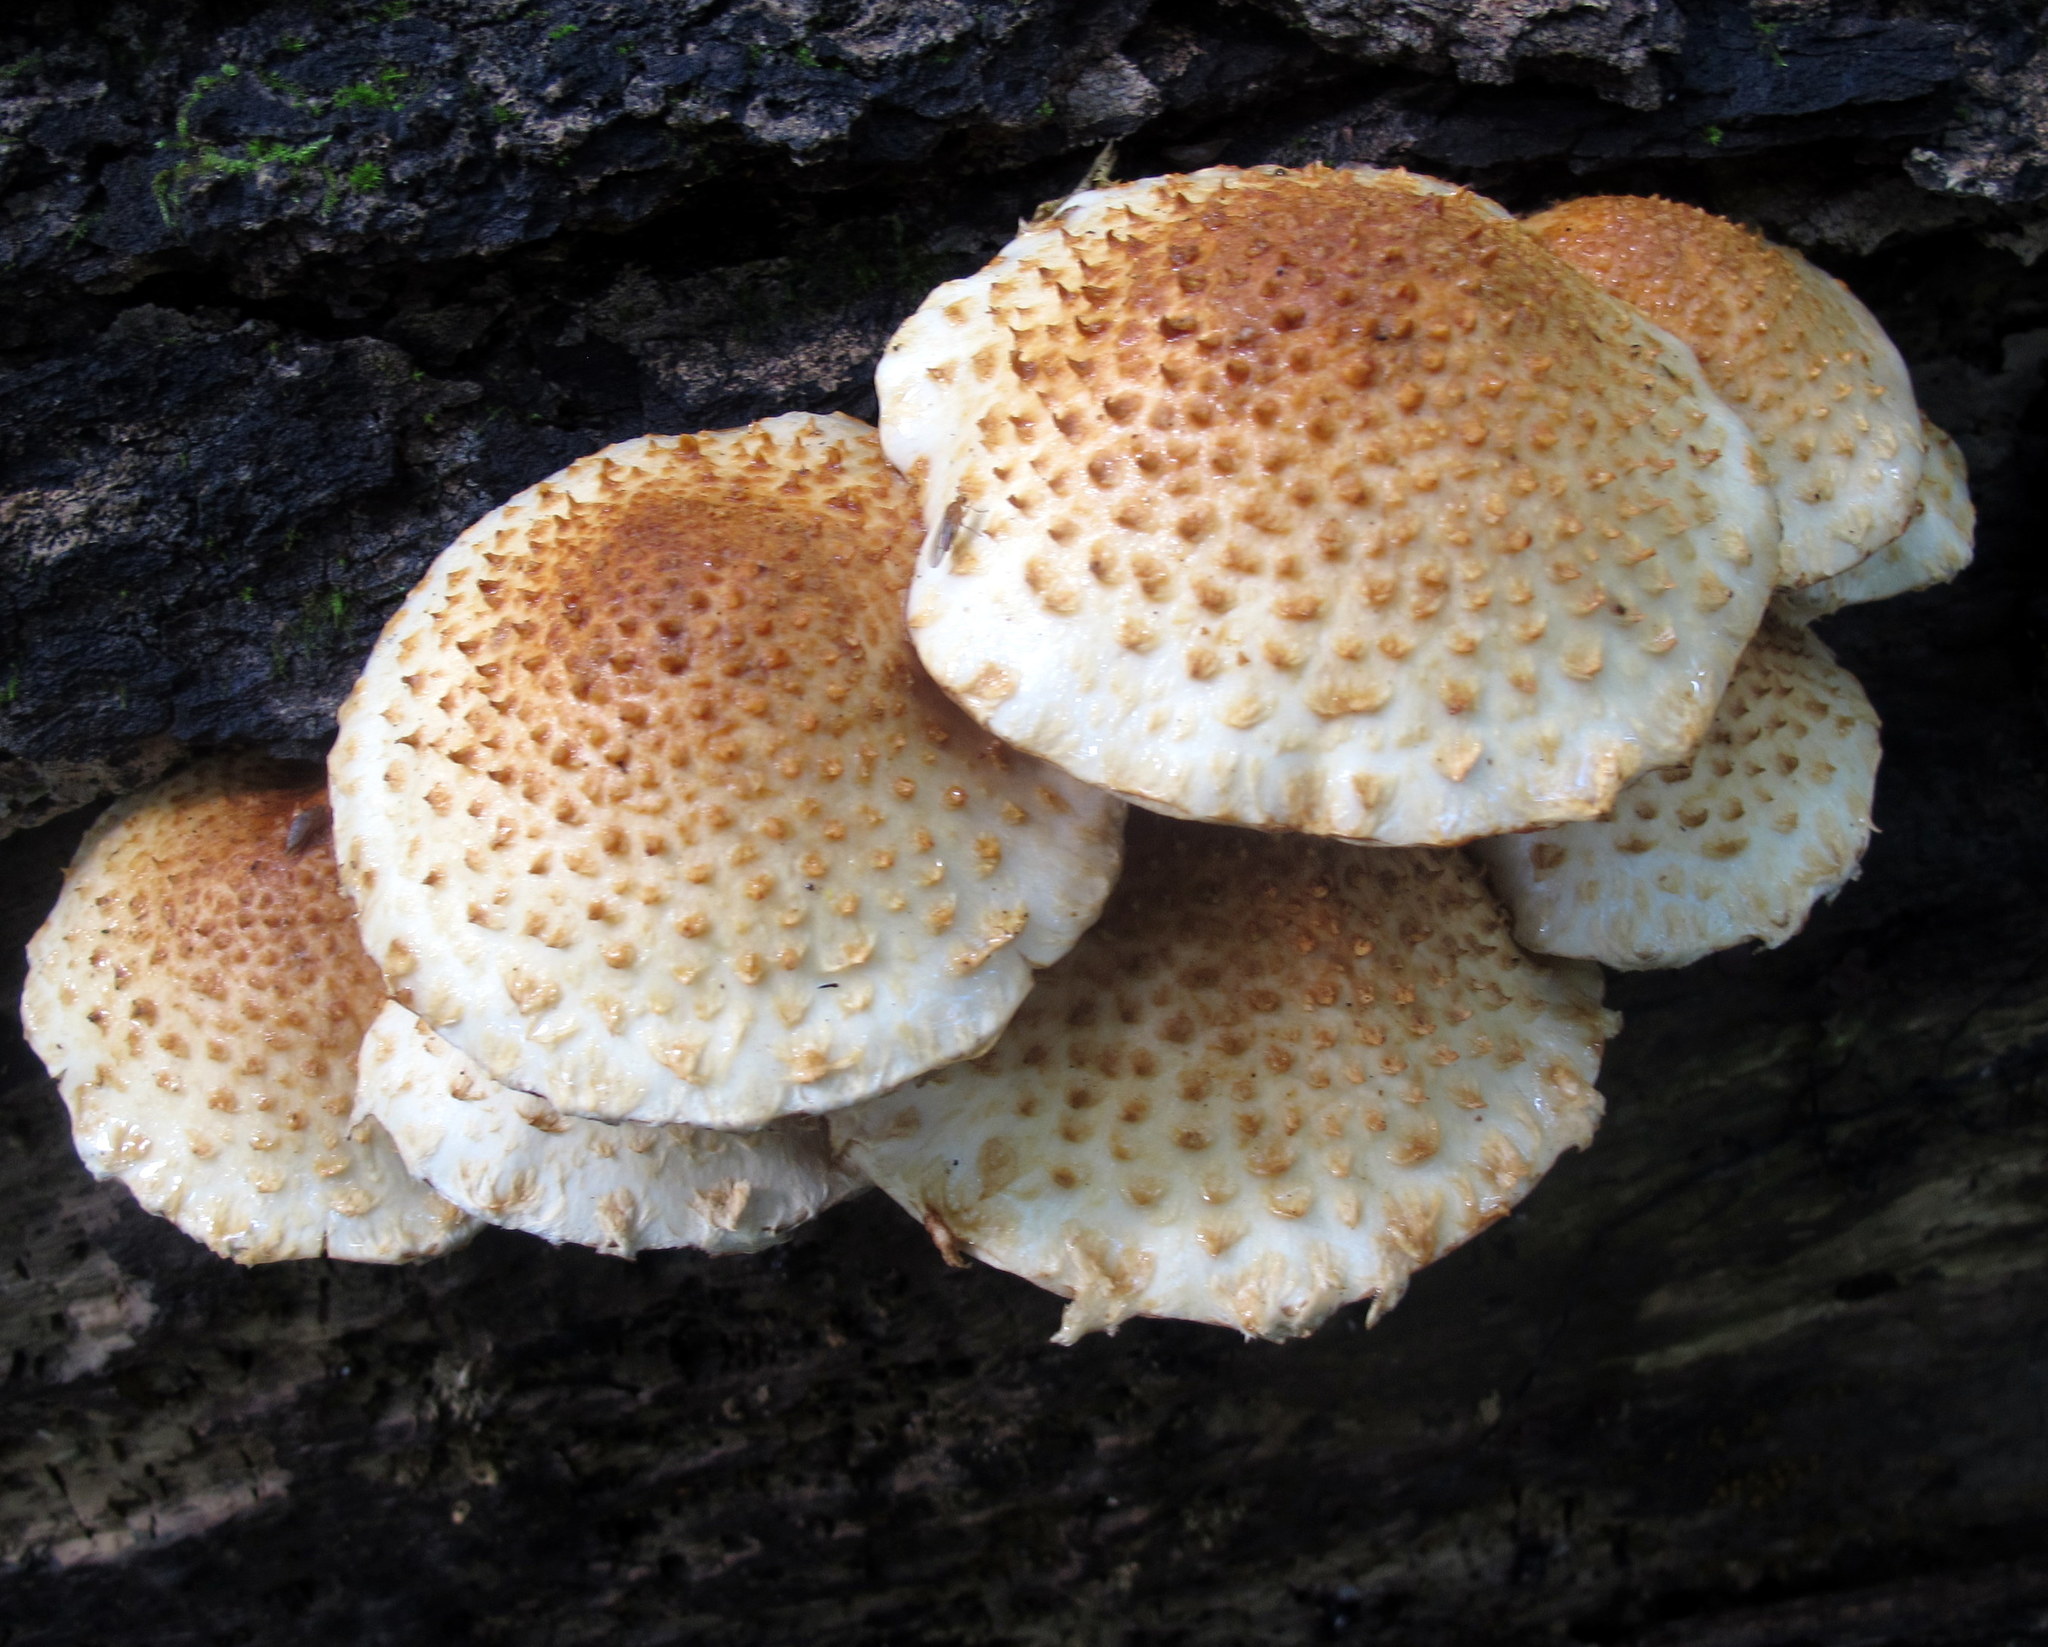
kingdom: Fungi
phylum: Basidiomycota
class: Agaricomycetes
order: Agaricales
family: Strophariaceae
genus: Pholiota
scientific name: Pholiota squarrosoides
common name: Sharp-scaly pholiota
